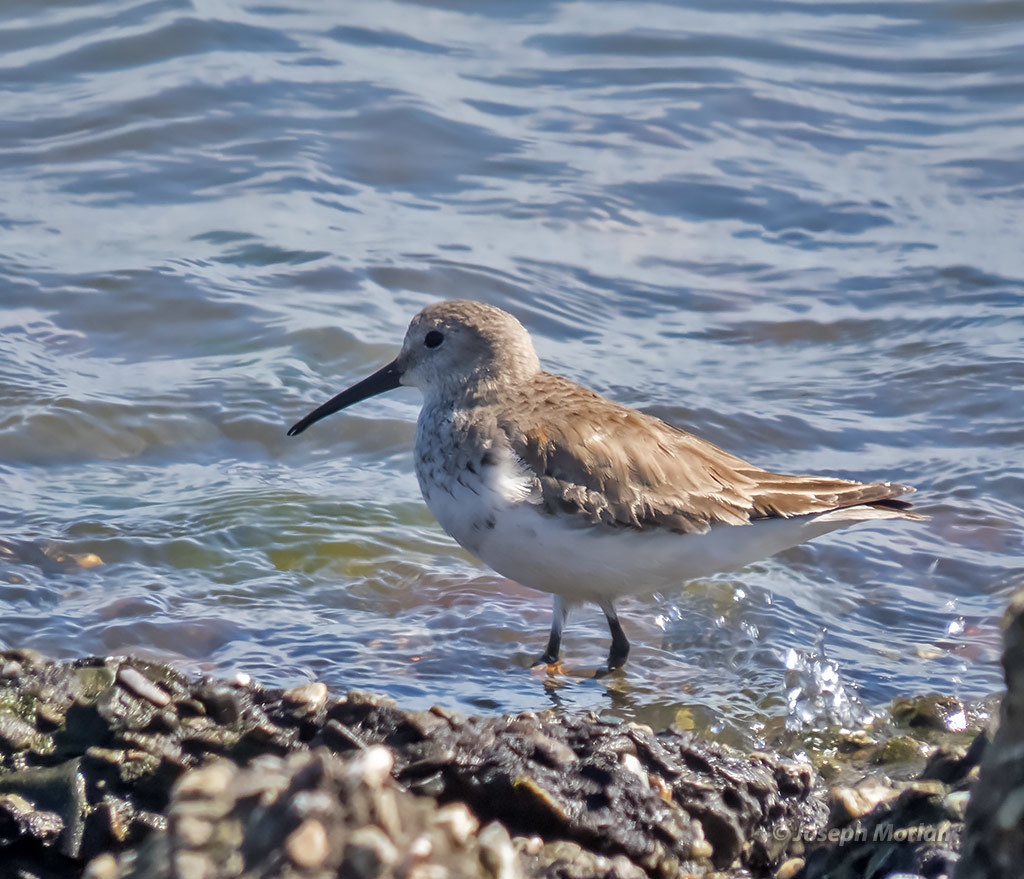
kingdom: Animalia
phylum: Chordata
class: Aves
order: Charadriiformes
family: Scolopacidae
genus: Calidris
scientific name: Calidris alpina
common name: Dunlin
